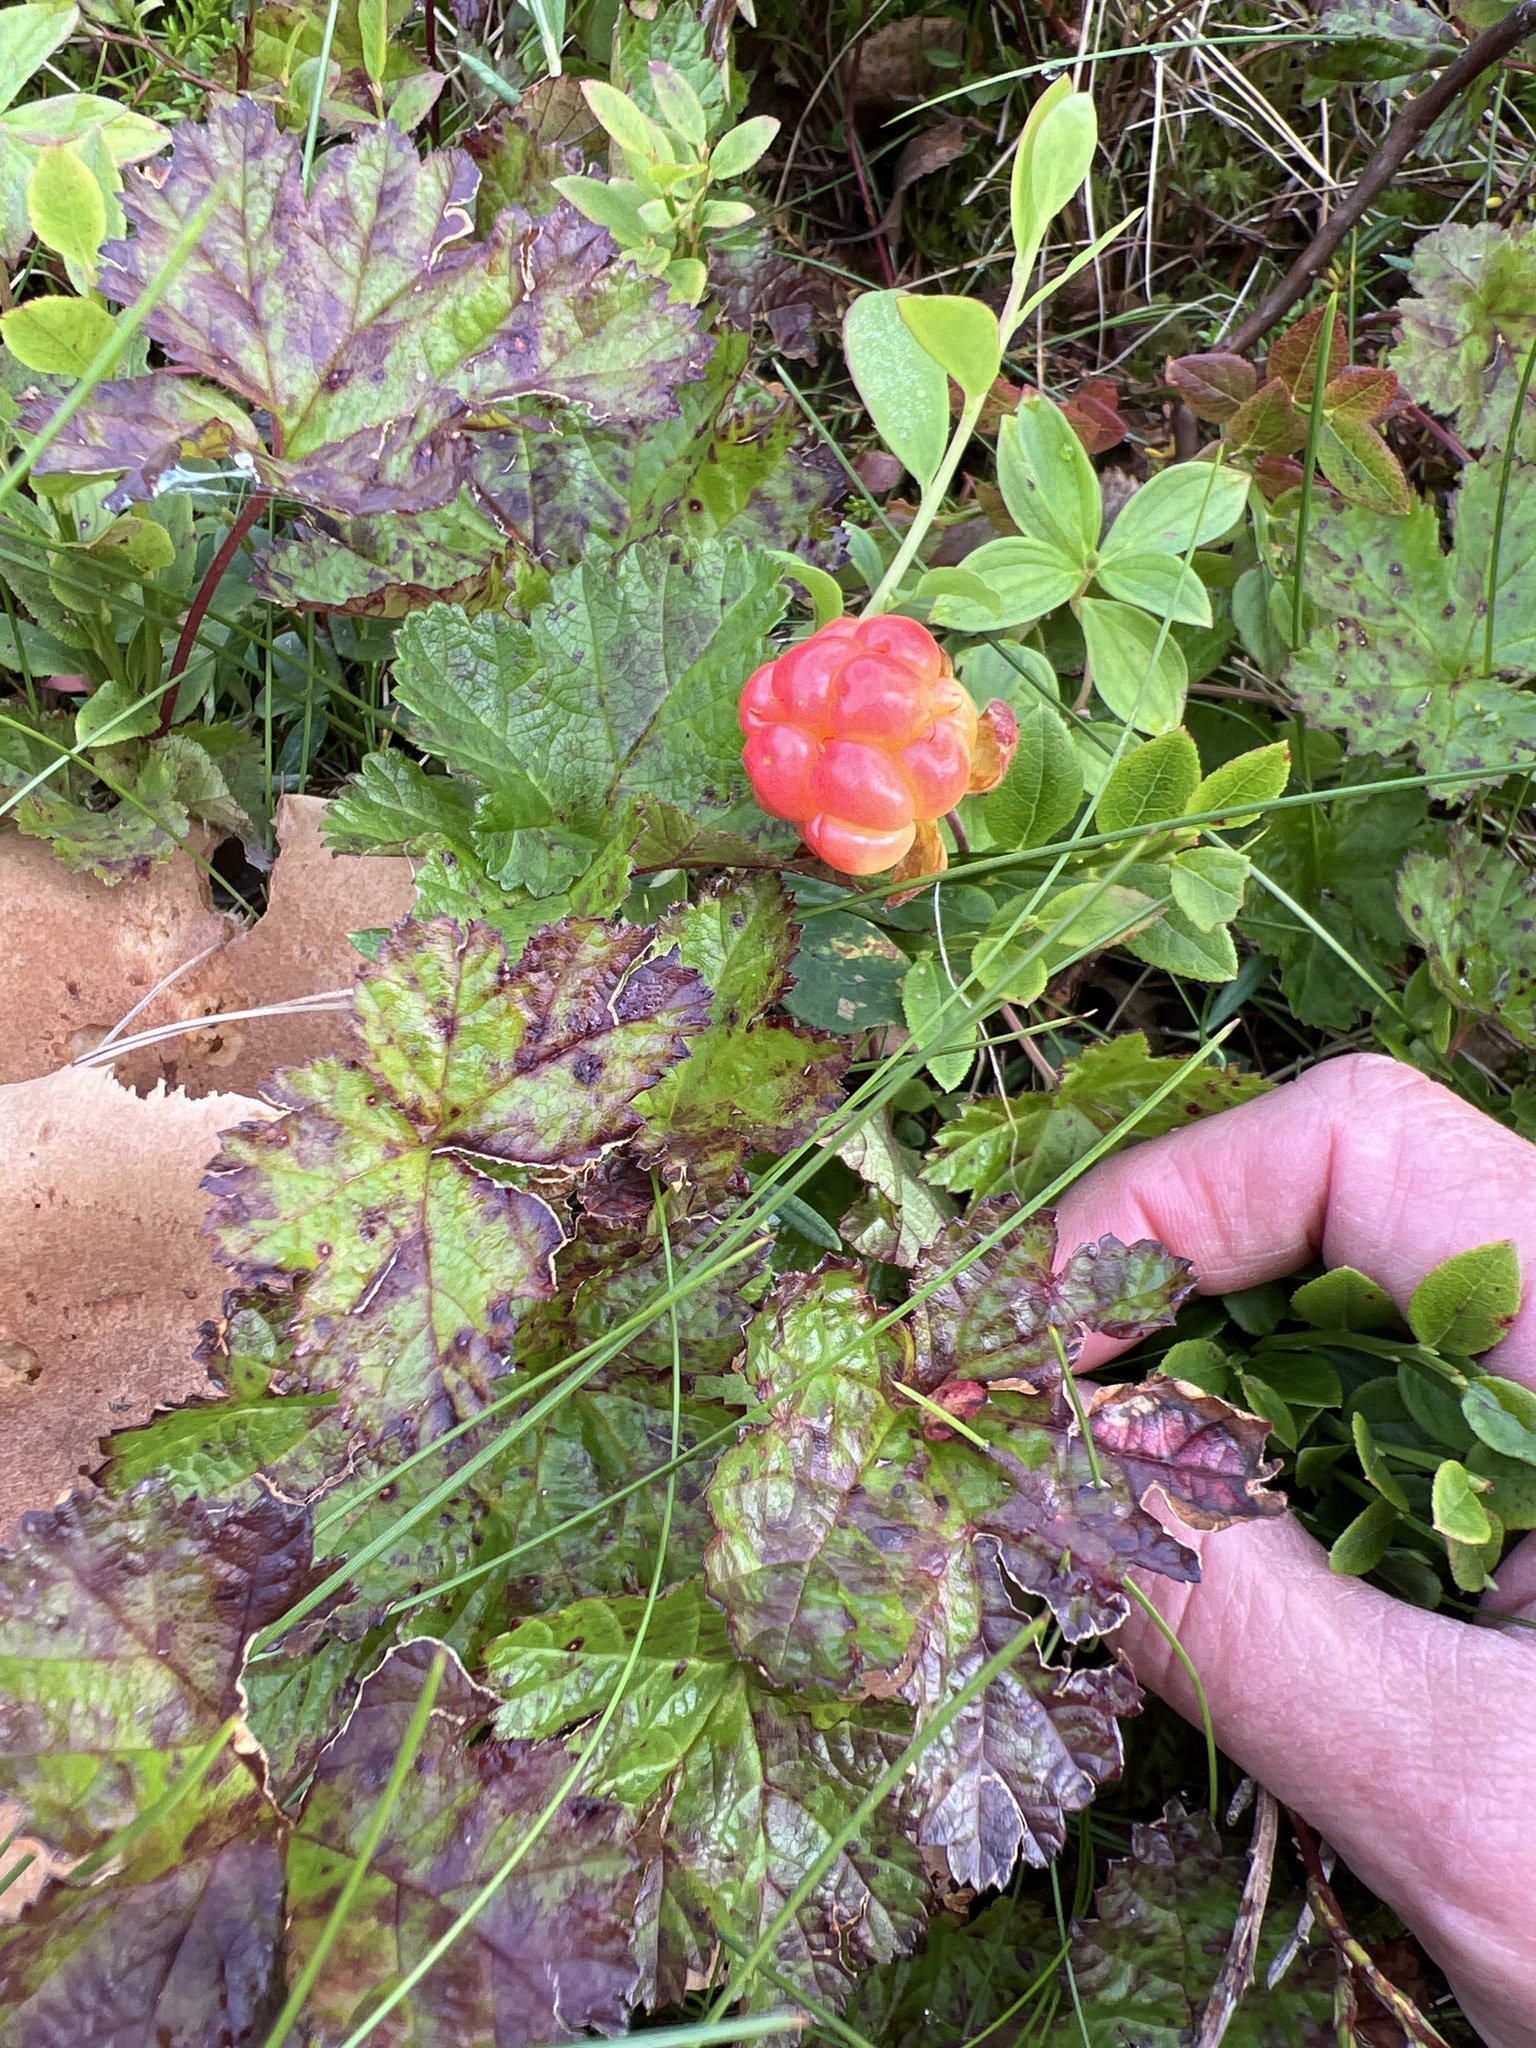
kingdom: Plantae
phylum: Tracheophyta
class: Magnoliopsida
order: Rosales
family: Rosaceae
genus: Rubus
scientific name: Rubus chamaemorus
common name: Cloudberry
